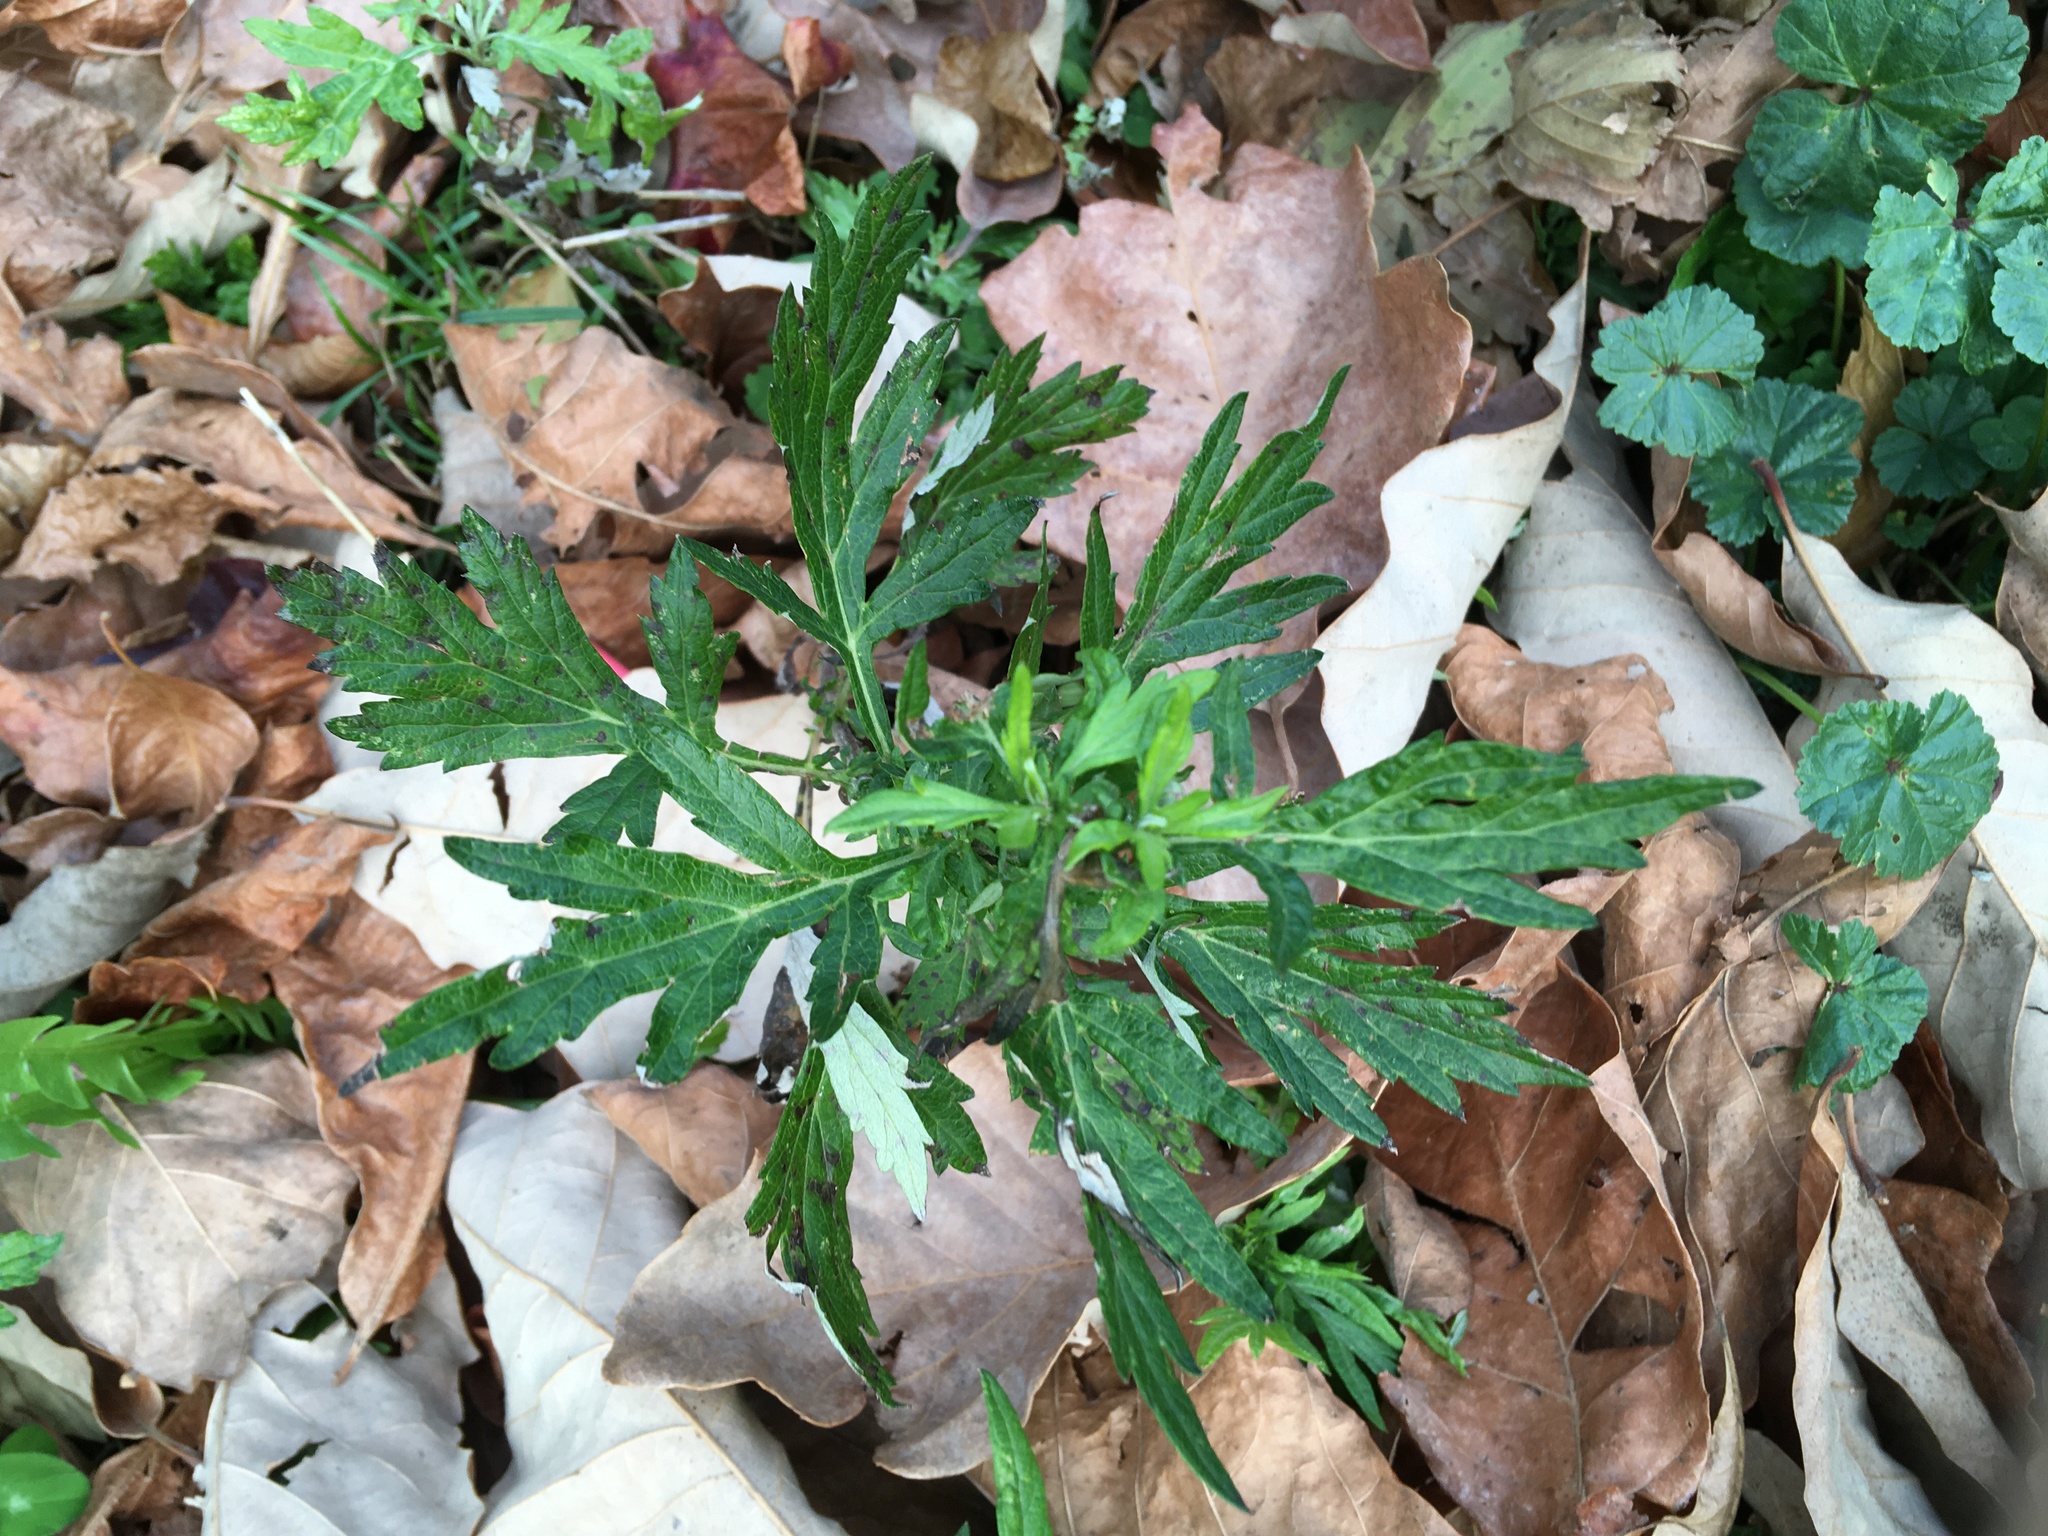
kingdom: Plantae
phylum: Tracheophyta
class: Magnoliopsida
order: Asterales
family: Asteraceae
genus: Artemisia
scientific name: Artemisia vulgaris
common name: Mugwort
